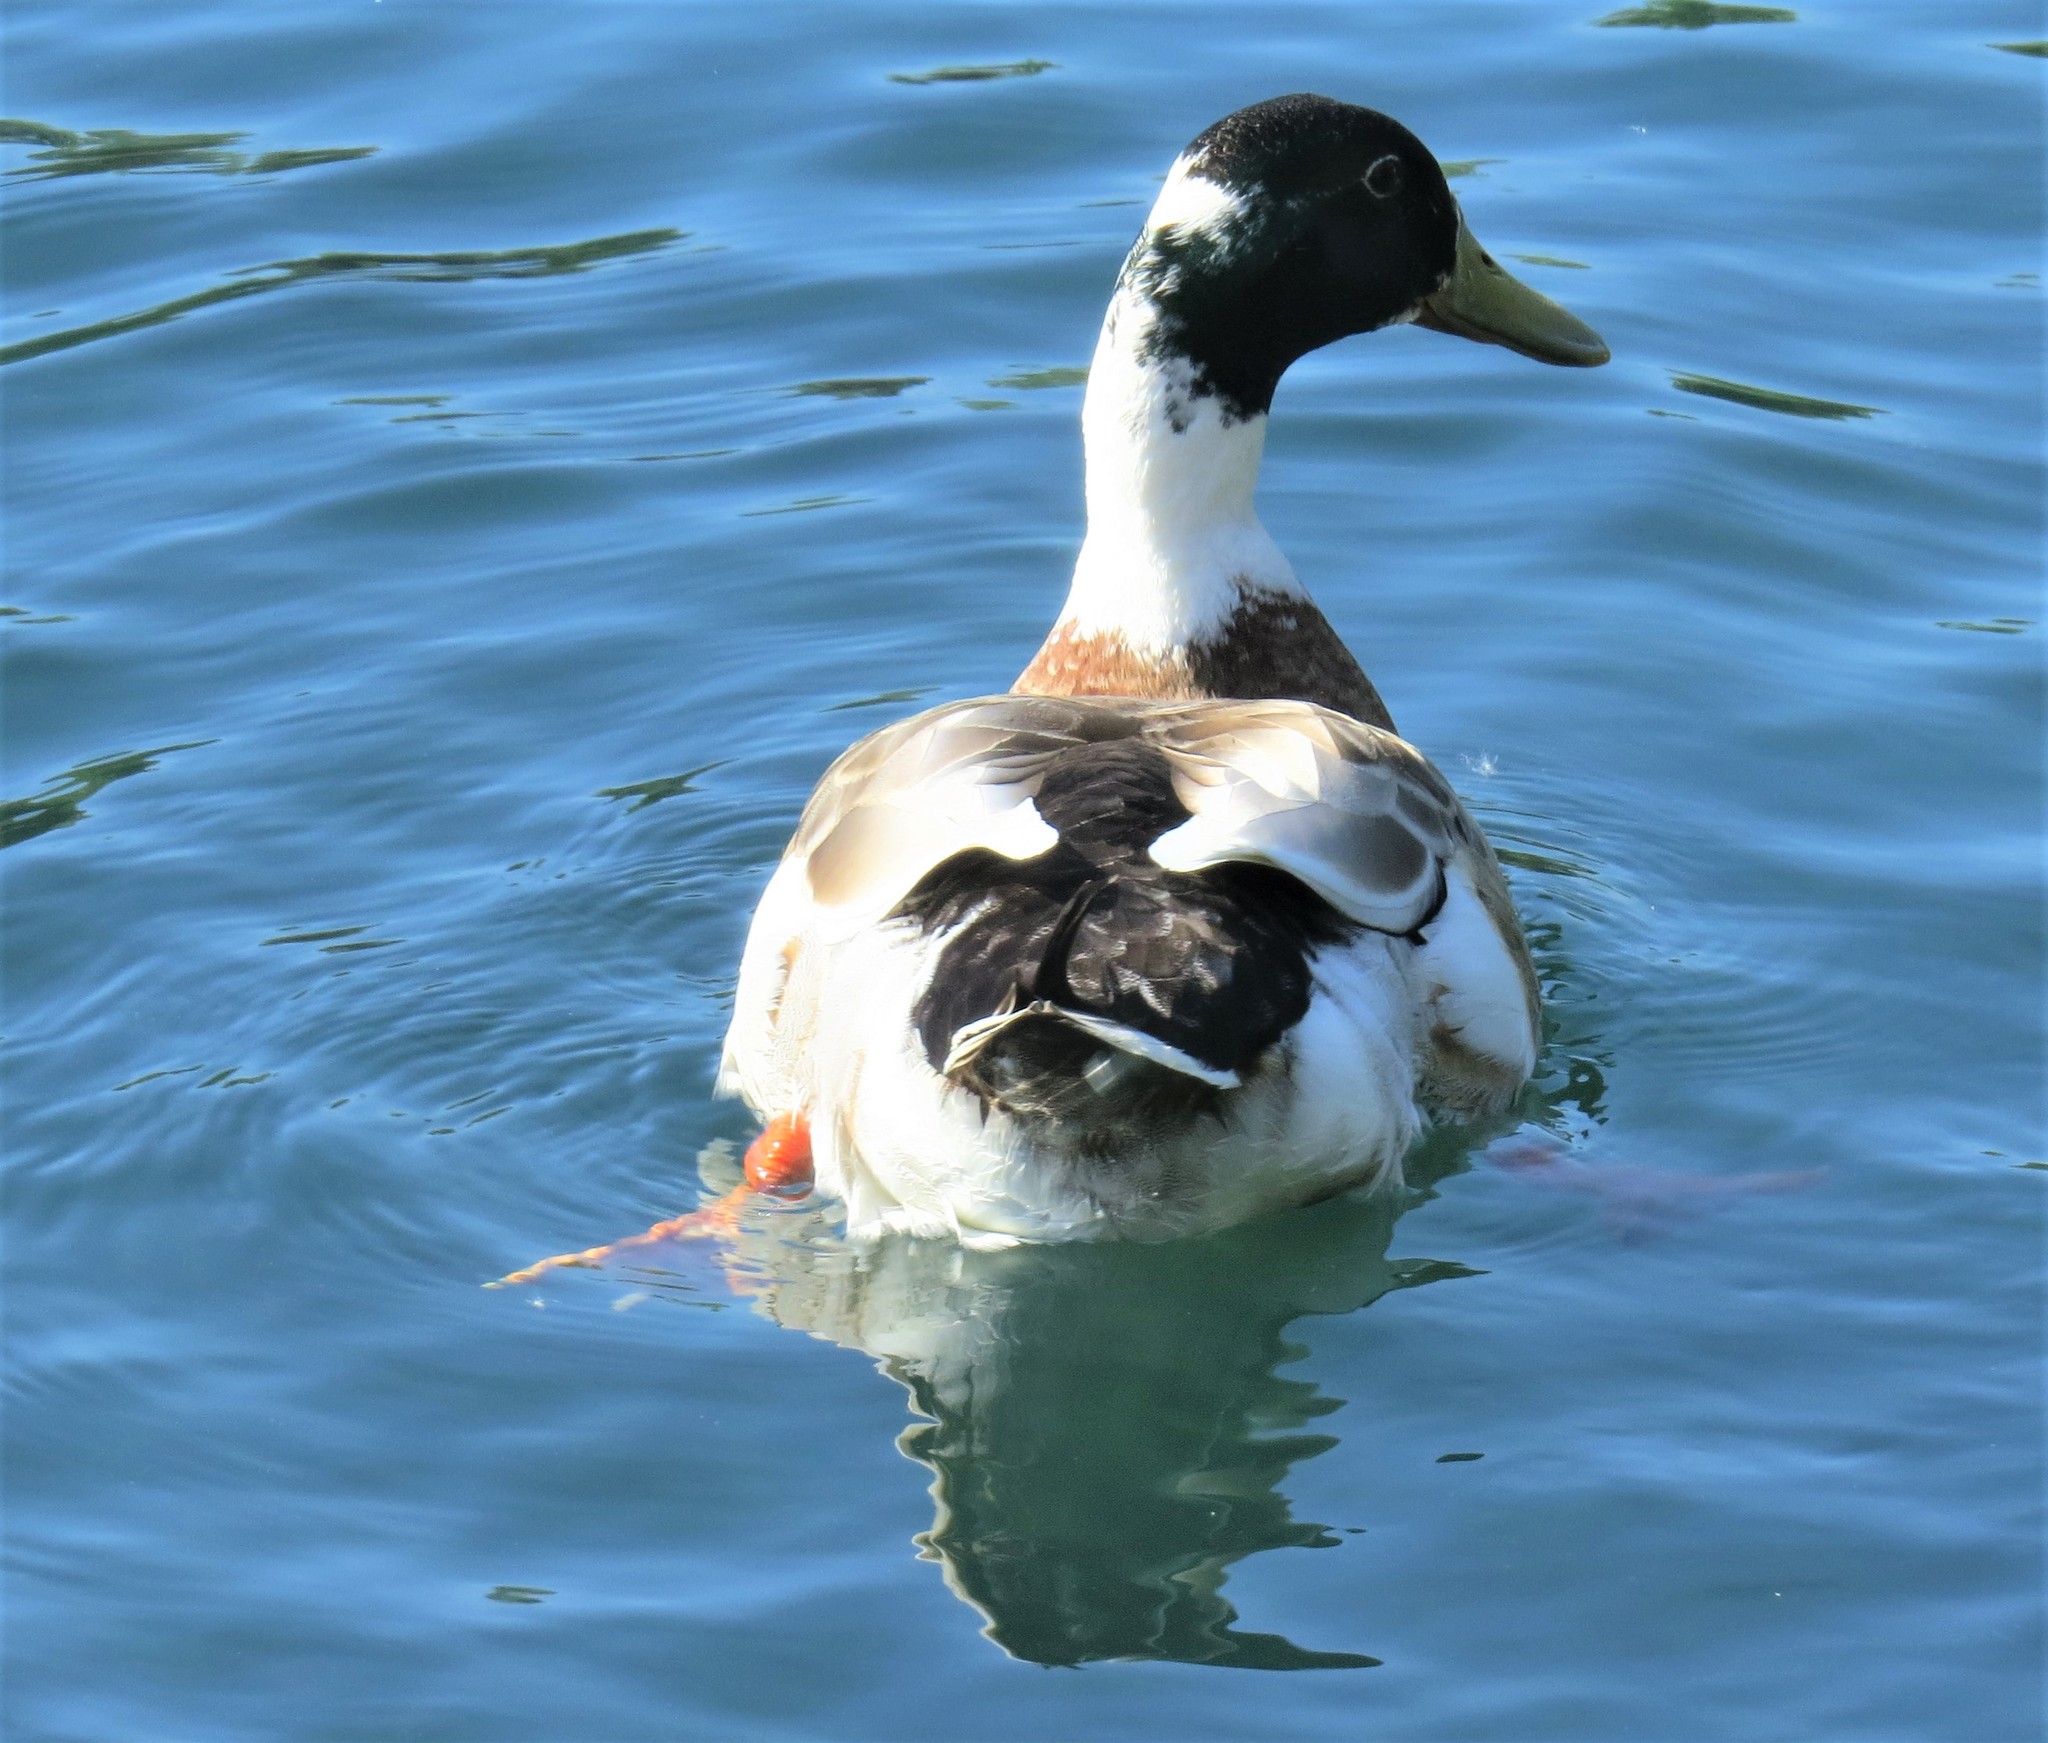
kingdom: Animalia
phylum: Chordata
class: Aves
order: Anseriformes
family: Anatidae
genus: Anas
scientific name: Anas platyrhynchos
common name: Mallard
